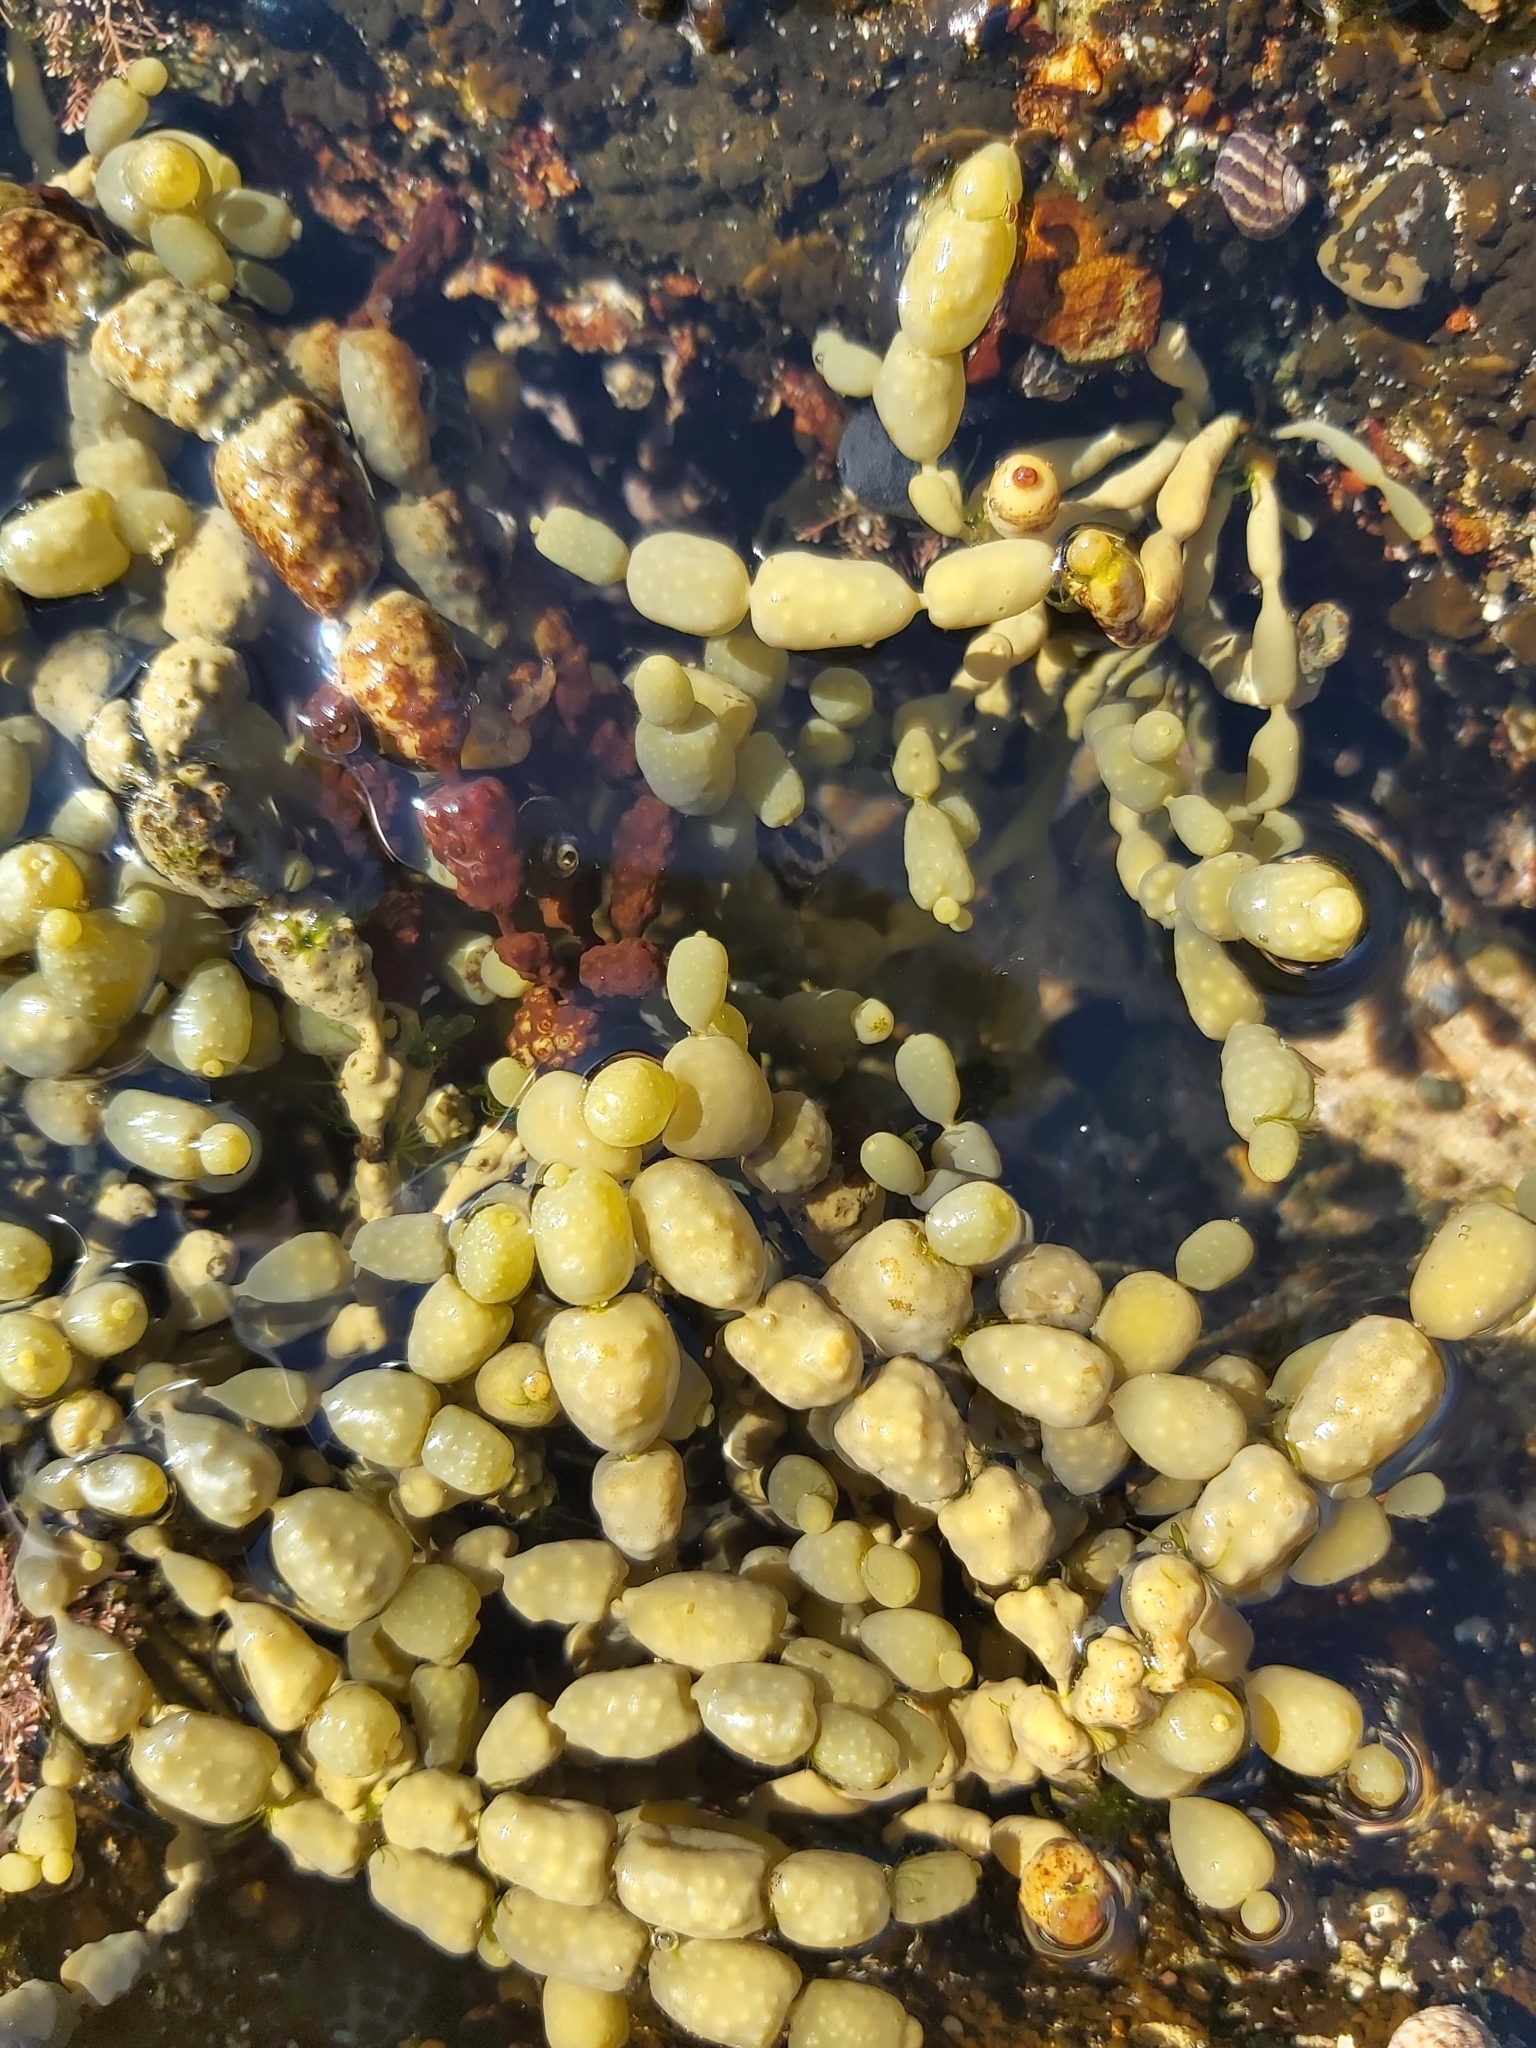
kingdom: Chromista
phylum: Ochrophyta
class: Phaeophyceae
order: Fucales
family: Hormosiraceae
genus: Hormosira
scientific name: Hormosira banksii
